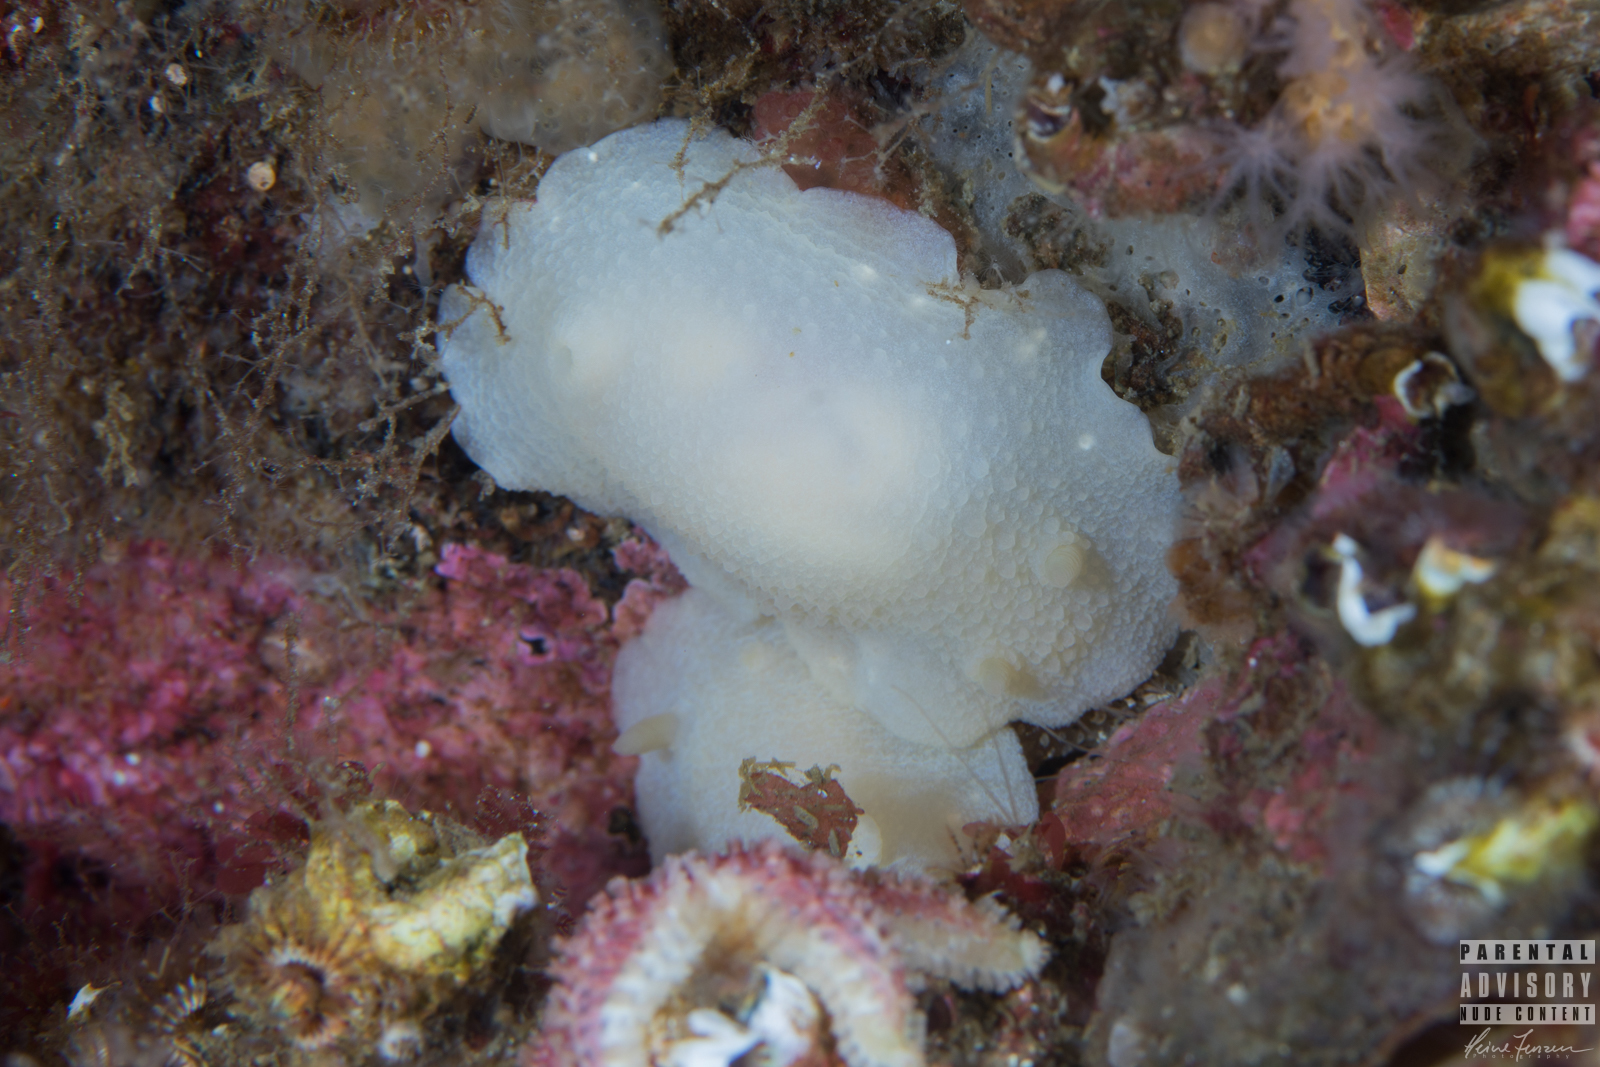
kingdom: Animalia
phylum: Mollusca
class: Gastropoda
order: Nudibranchia
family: Cadlinidae
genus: Cadlina
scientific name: Cadlina laevis
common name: White atlantic cadlina
